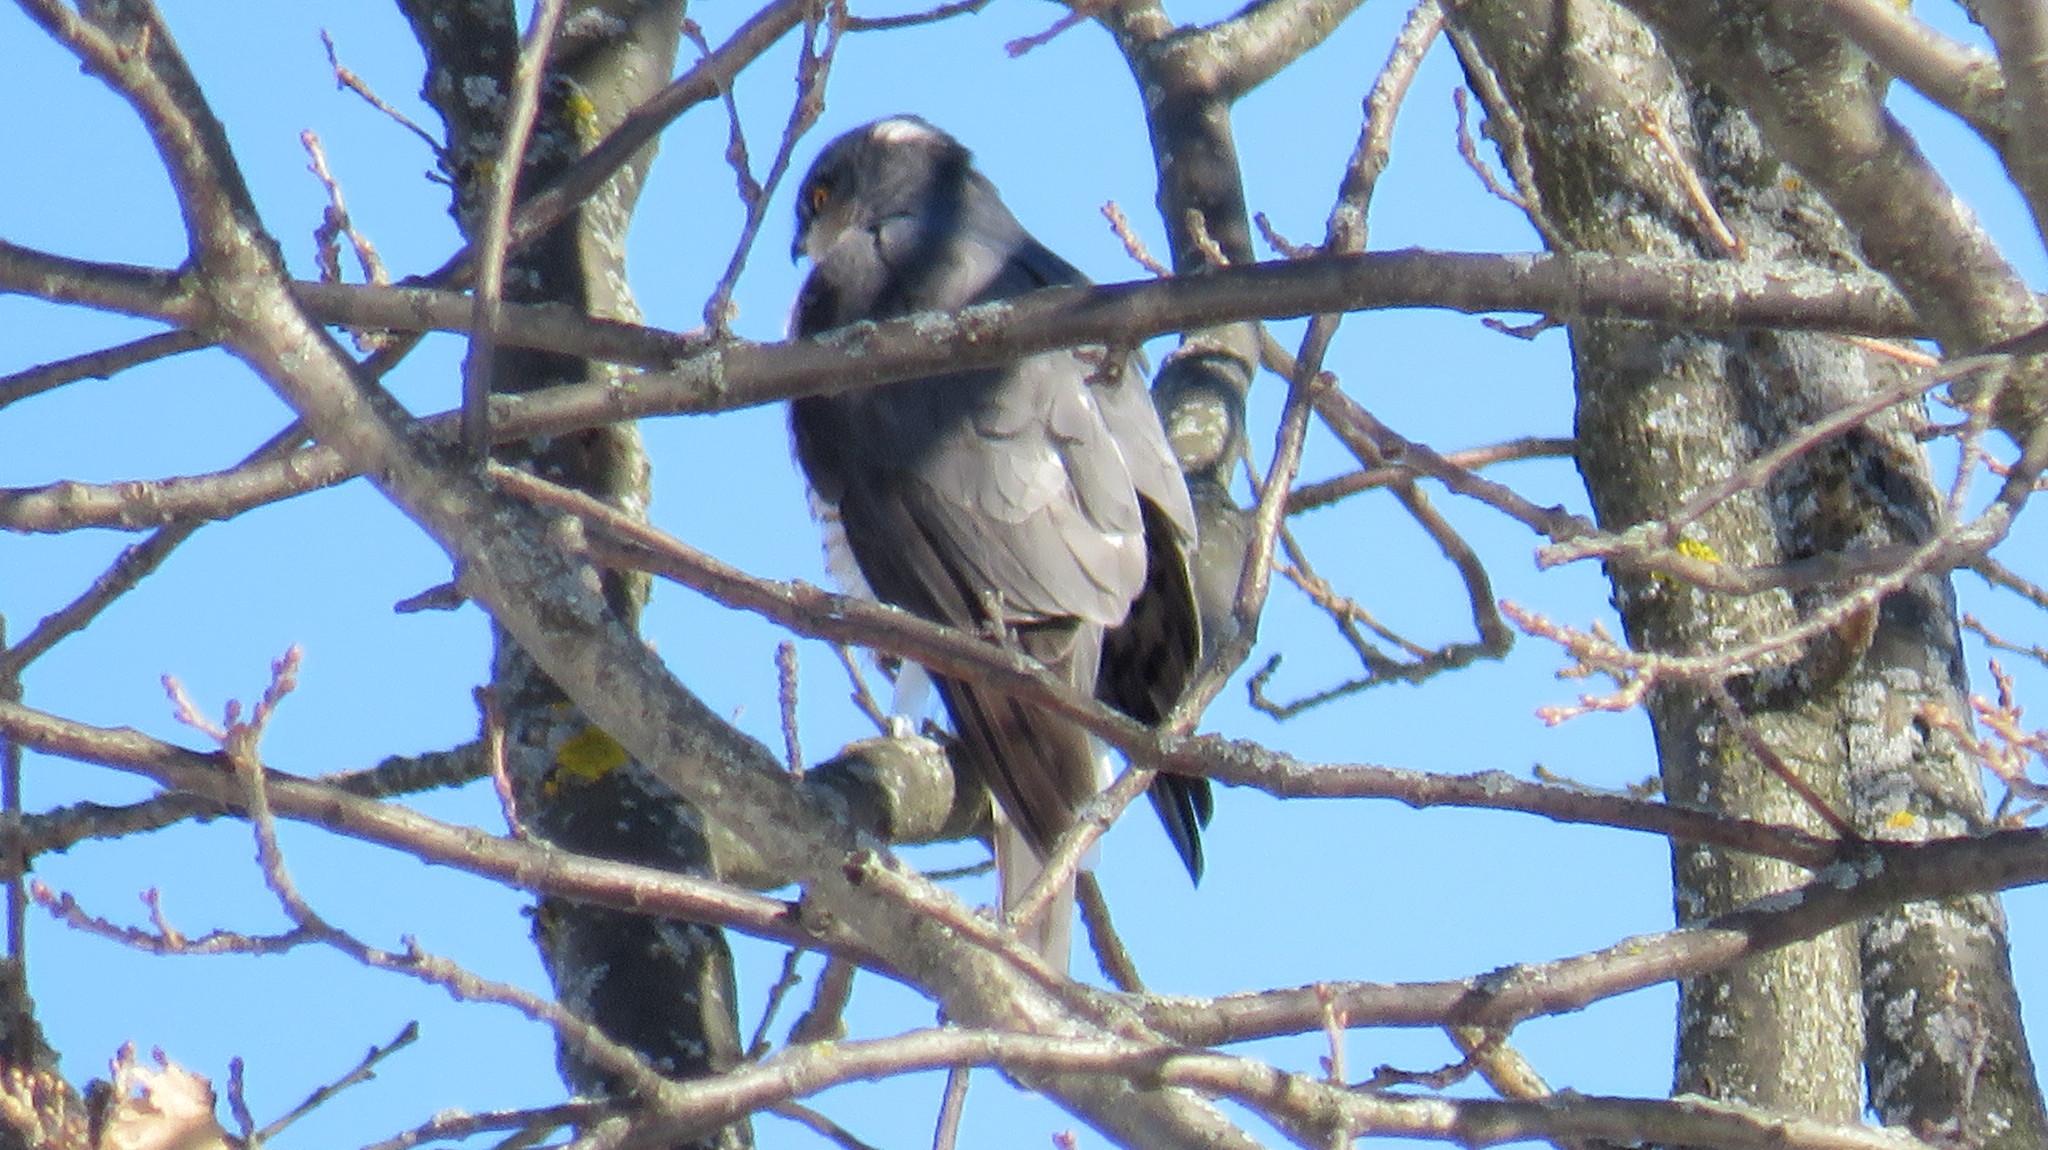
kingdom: Animalia
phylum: Chordata
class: Aves
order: Accipitriformes
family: Accipitridae
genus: Accipiter
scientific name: Accipiter nisus
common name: Eurasian sparrowhawk
